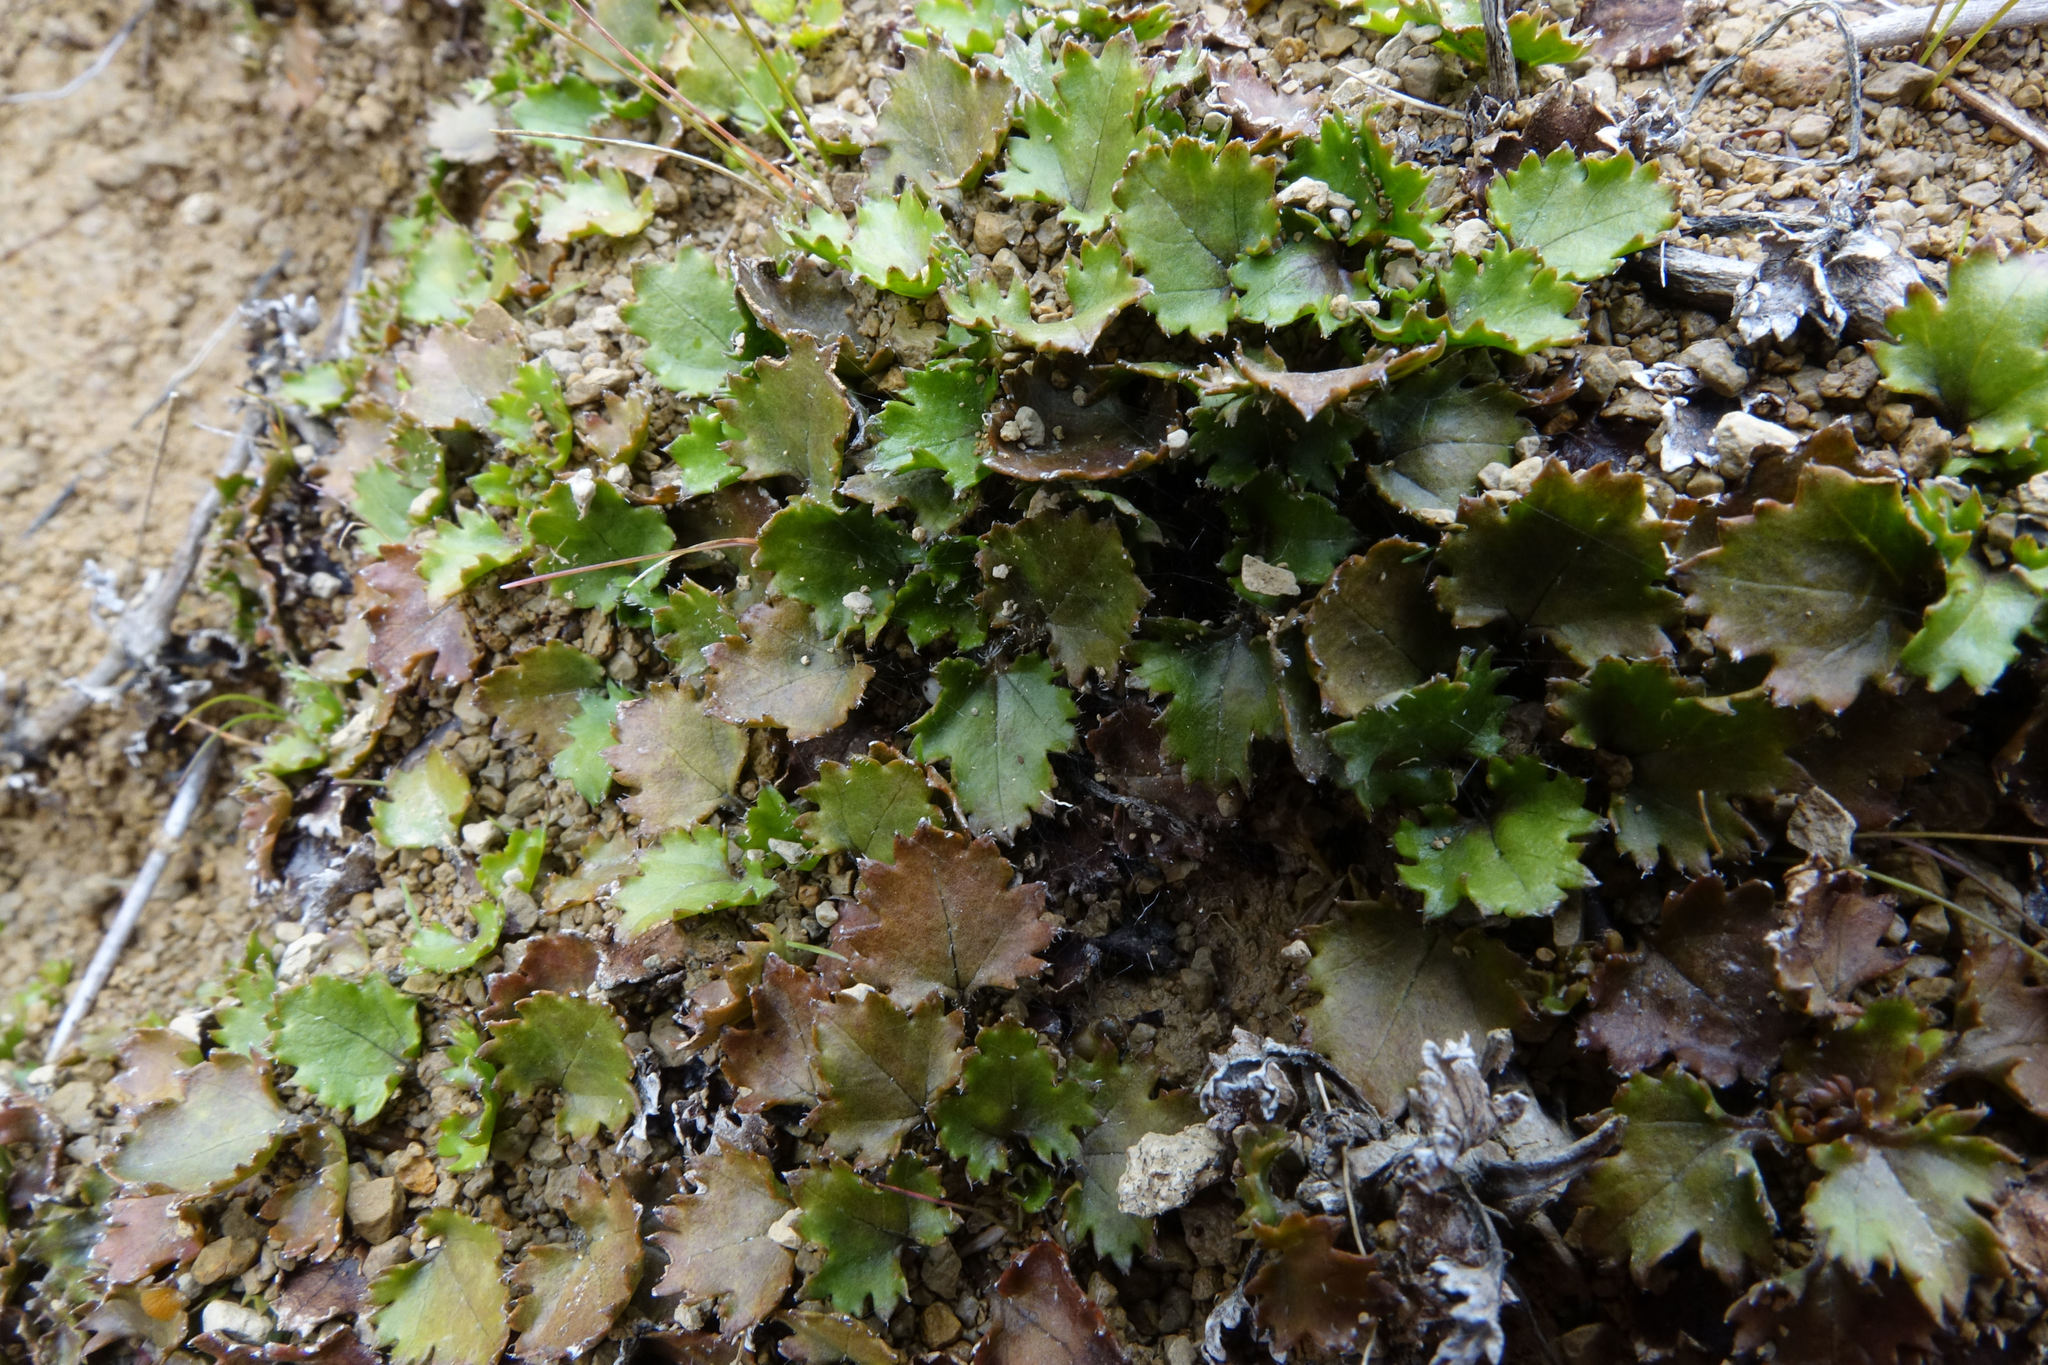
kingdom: Plantae
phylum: Tracheophyta
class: Magnoliopsida
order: Gunnerales
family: Gunneraceae
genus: Gunnera
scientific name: Gunnera monoica
